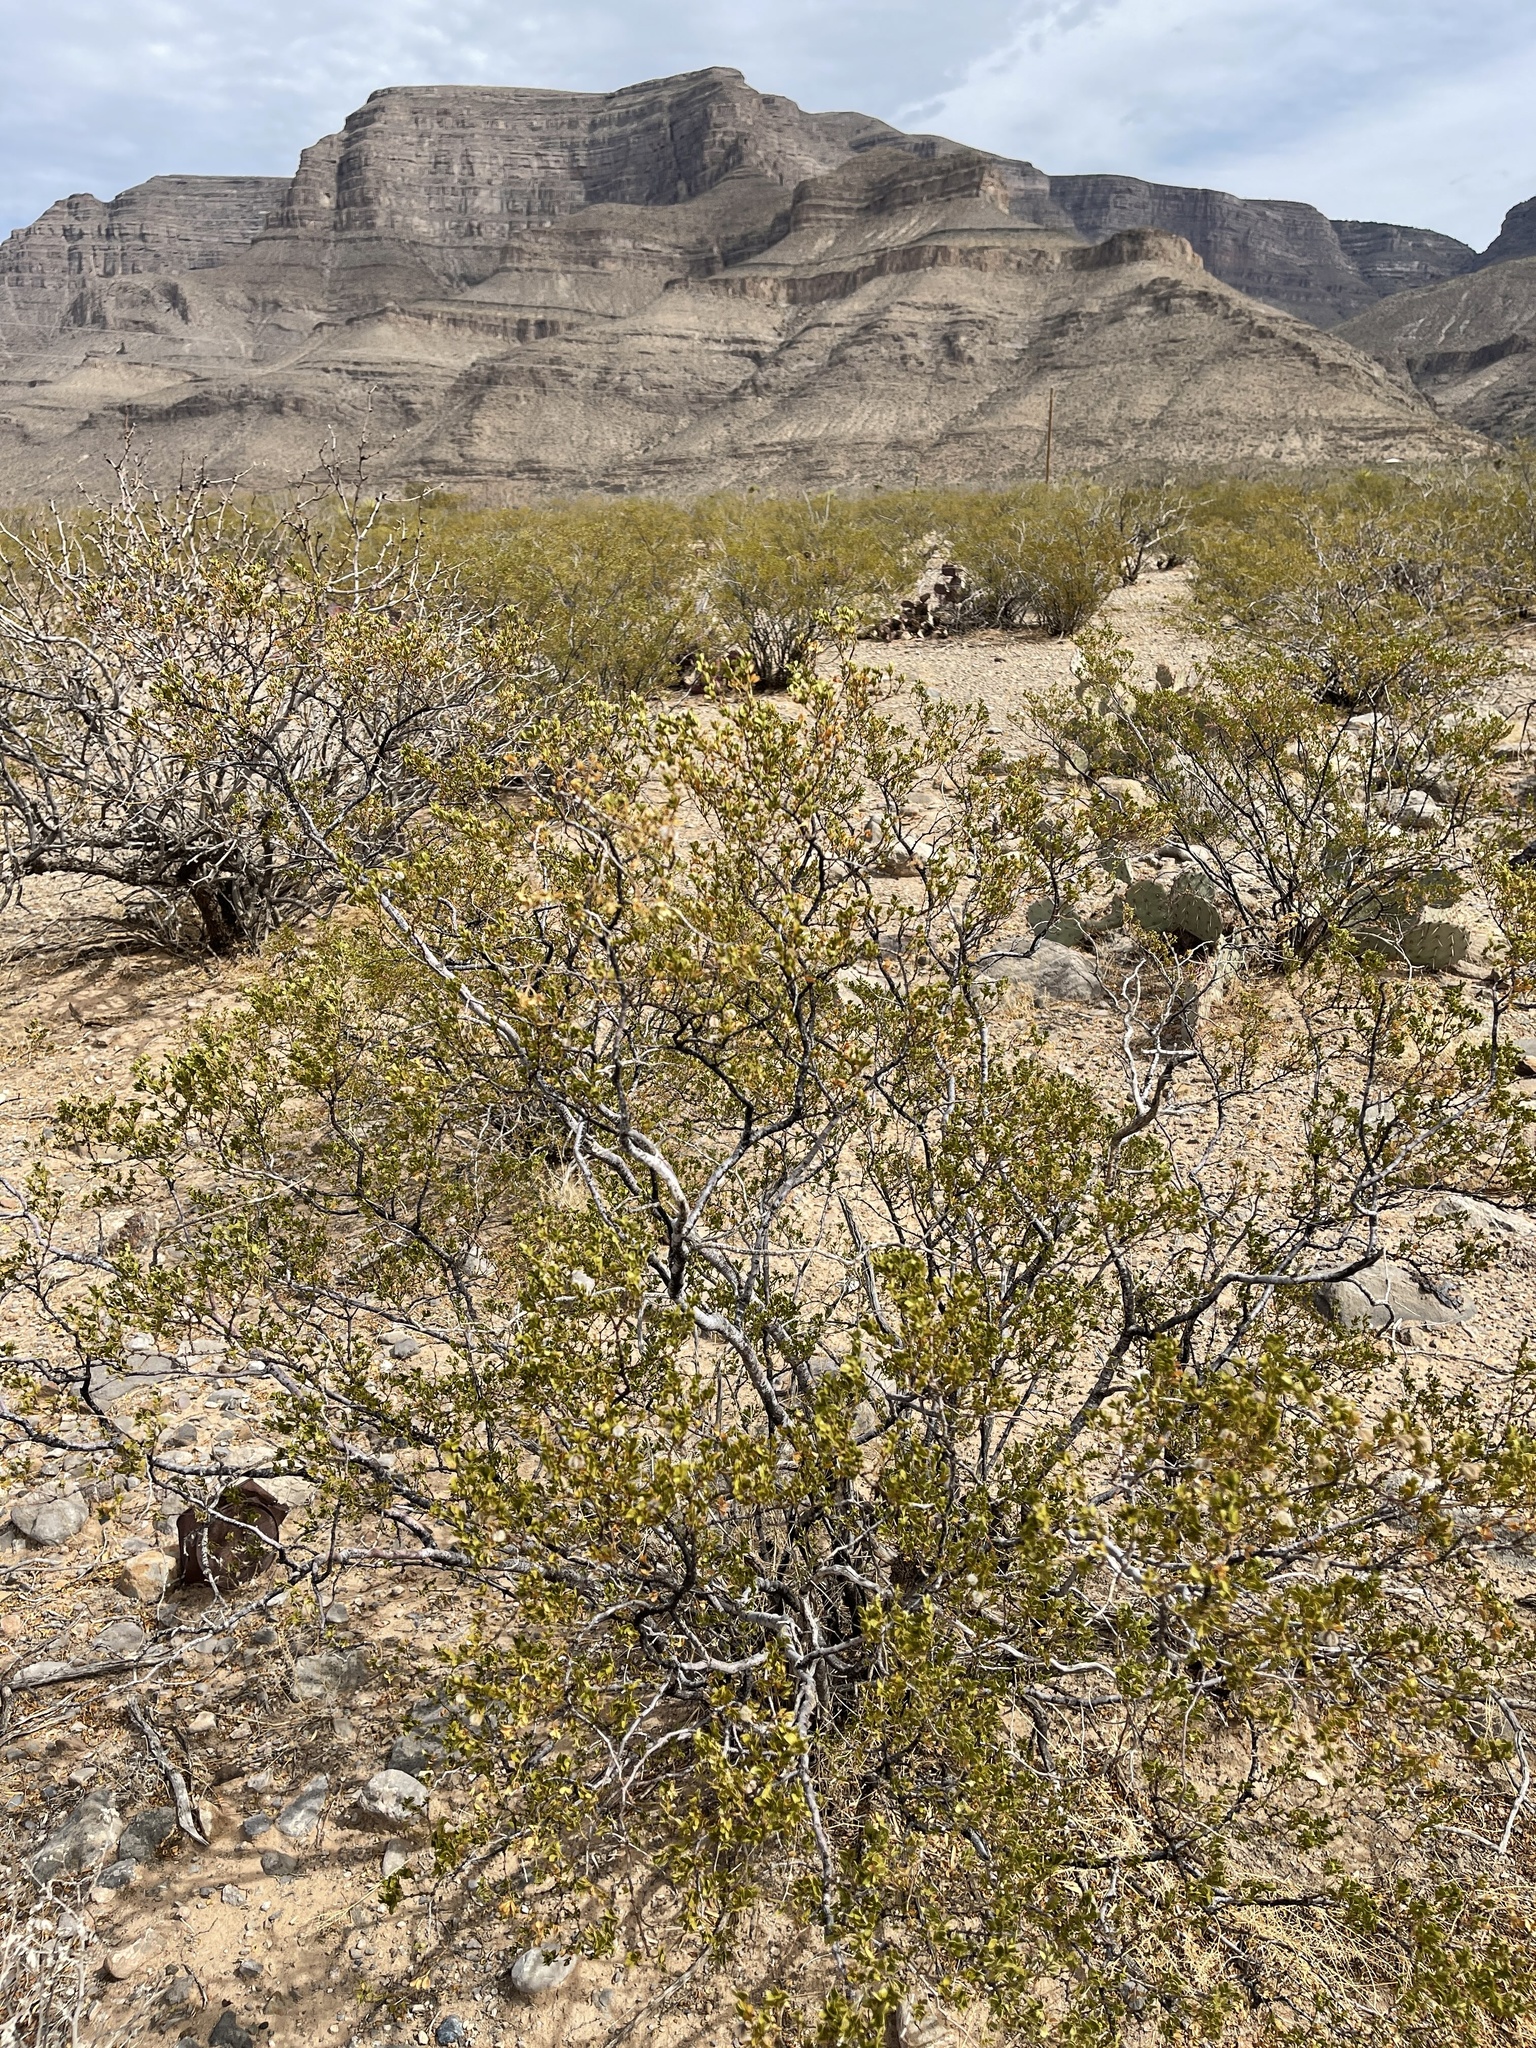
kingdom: Plantae
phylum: Tracheophyta
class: Magnoliopsida
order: Zygophyllales
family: Zygophyllaceae
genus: Larrea
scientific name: Larrea tridentata
